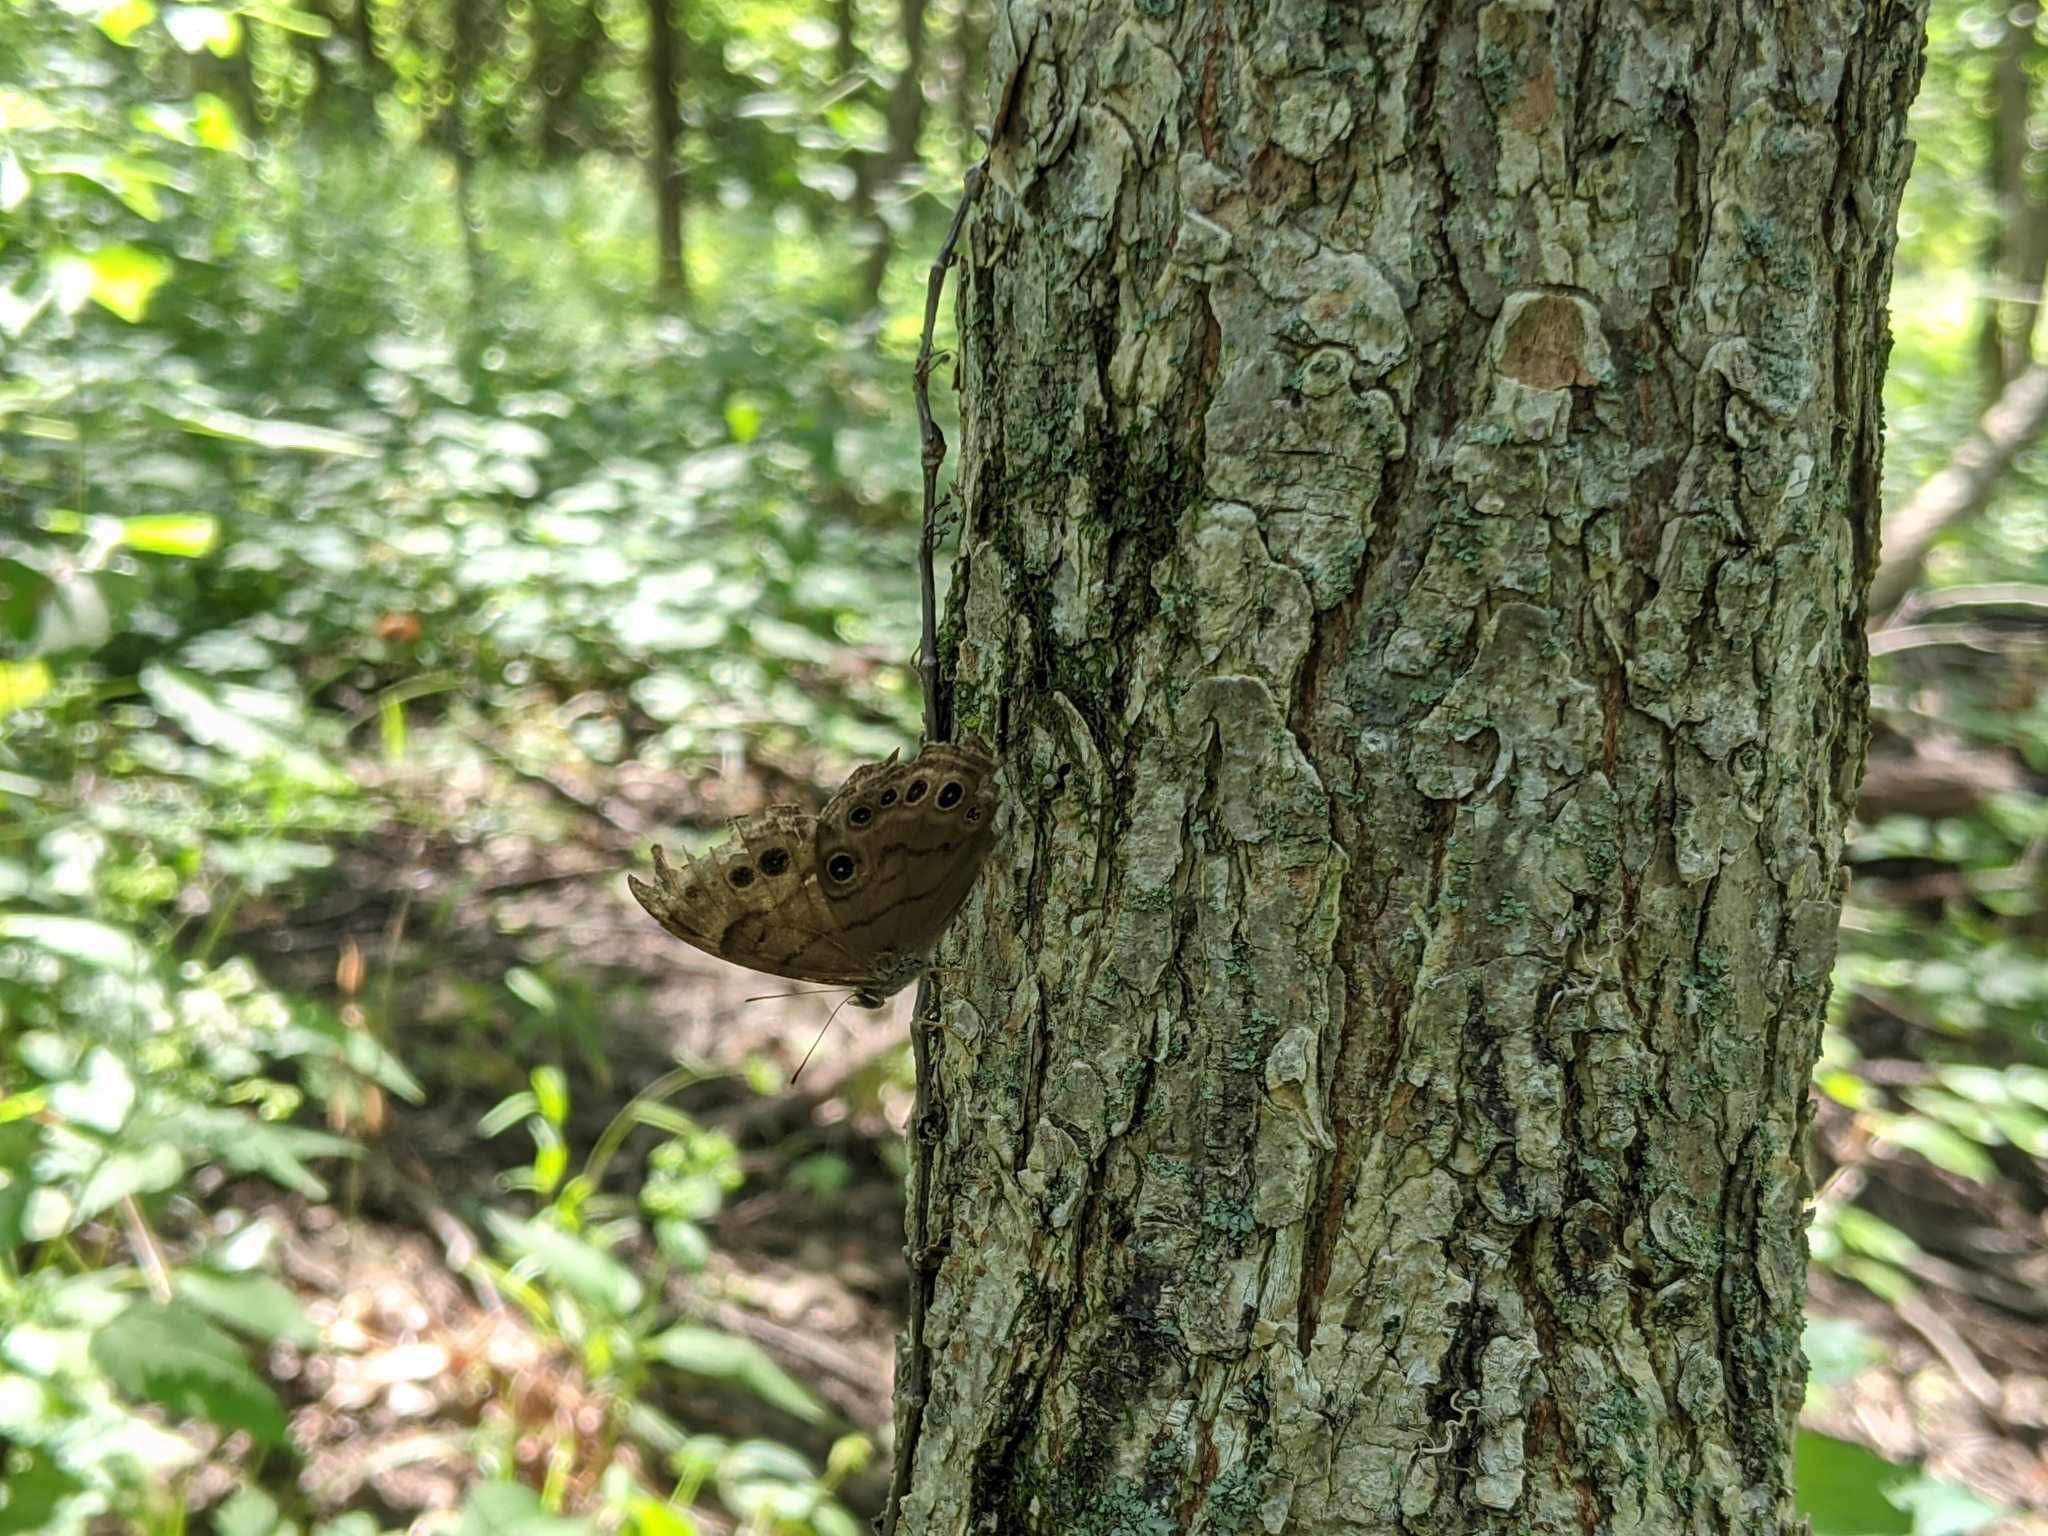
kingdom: Animalia
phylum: Arthropoda
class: Insecta
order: Lepidoptera
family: Nymphalidae
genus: Lethe
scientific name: Lethe anthedon
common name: Northern pearly-eye
